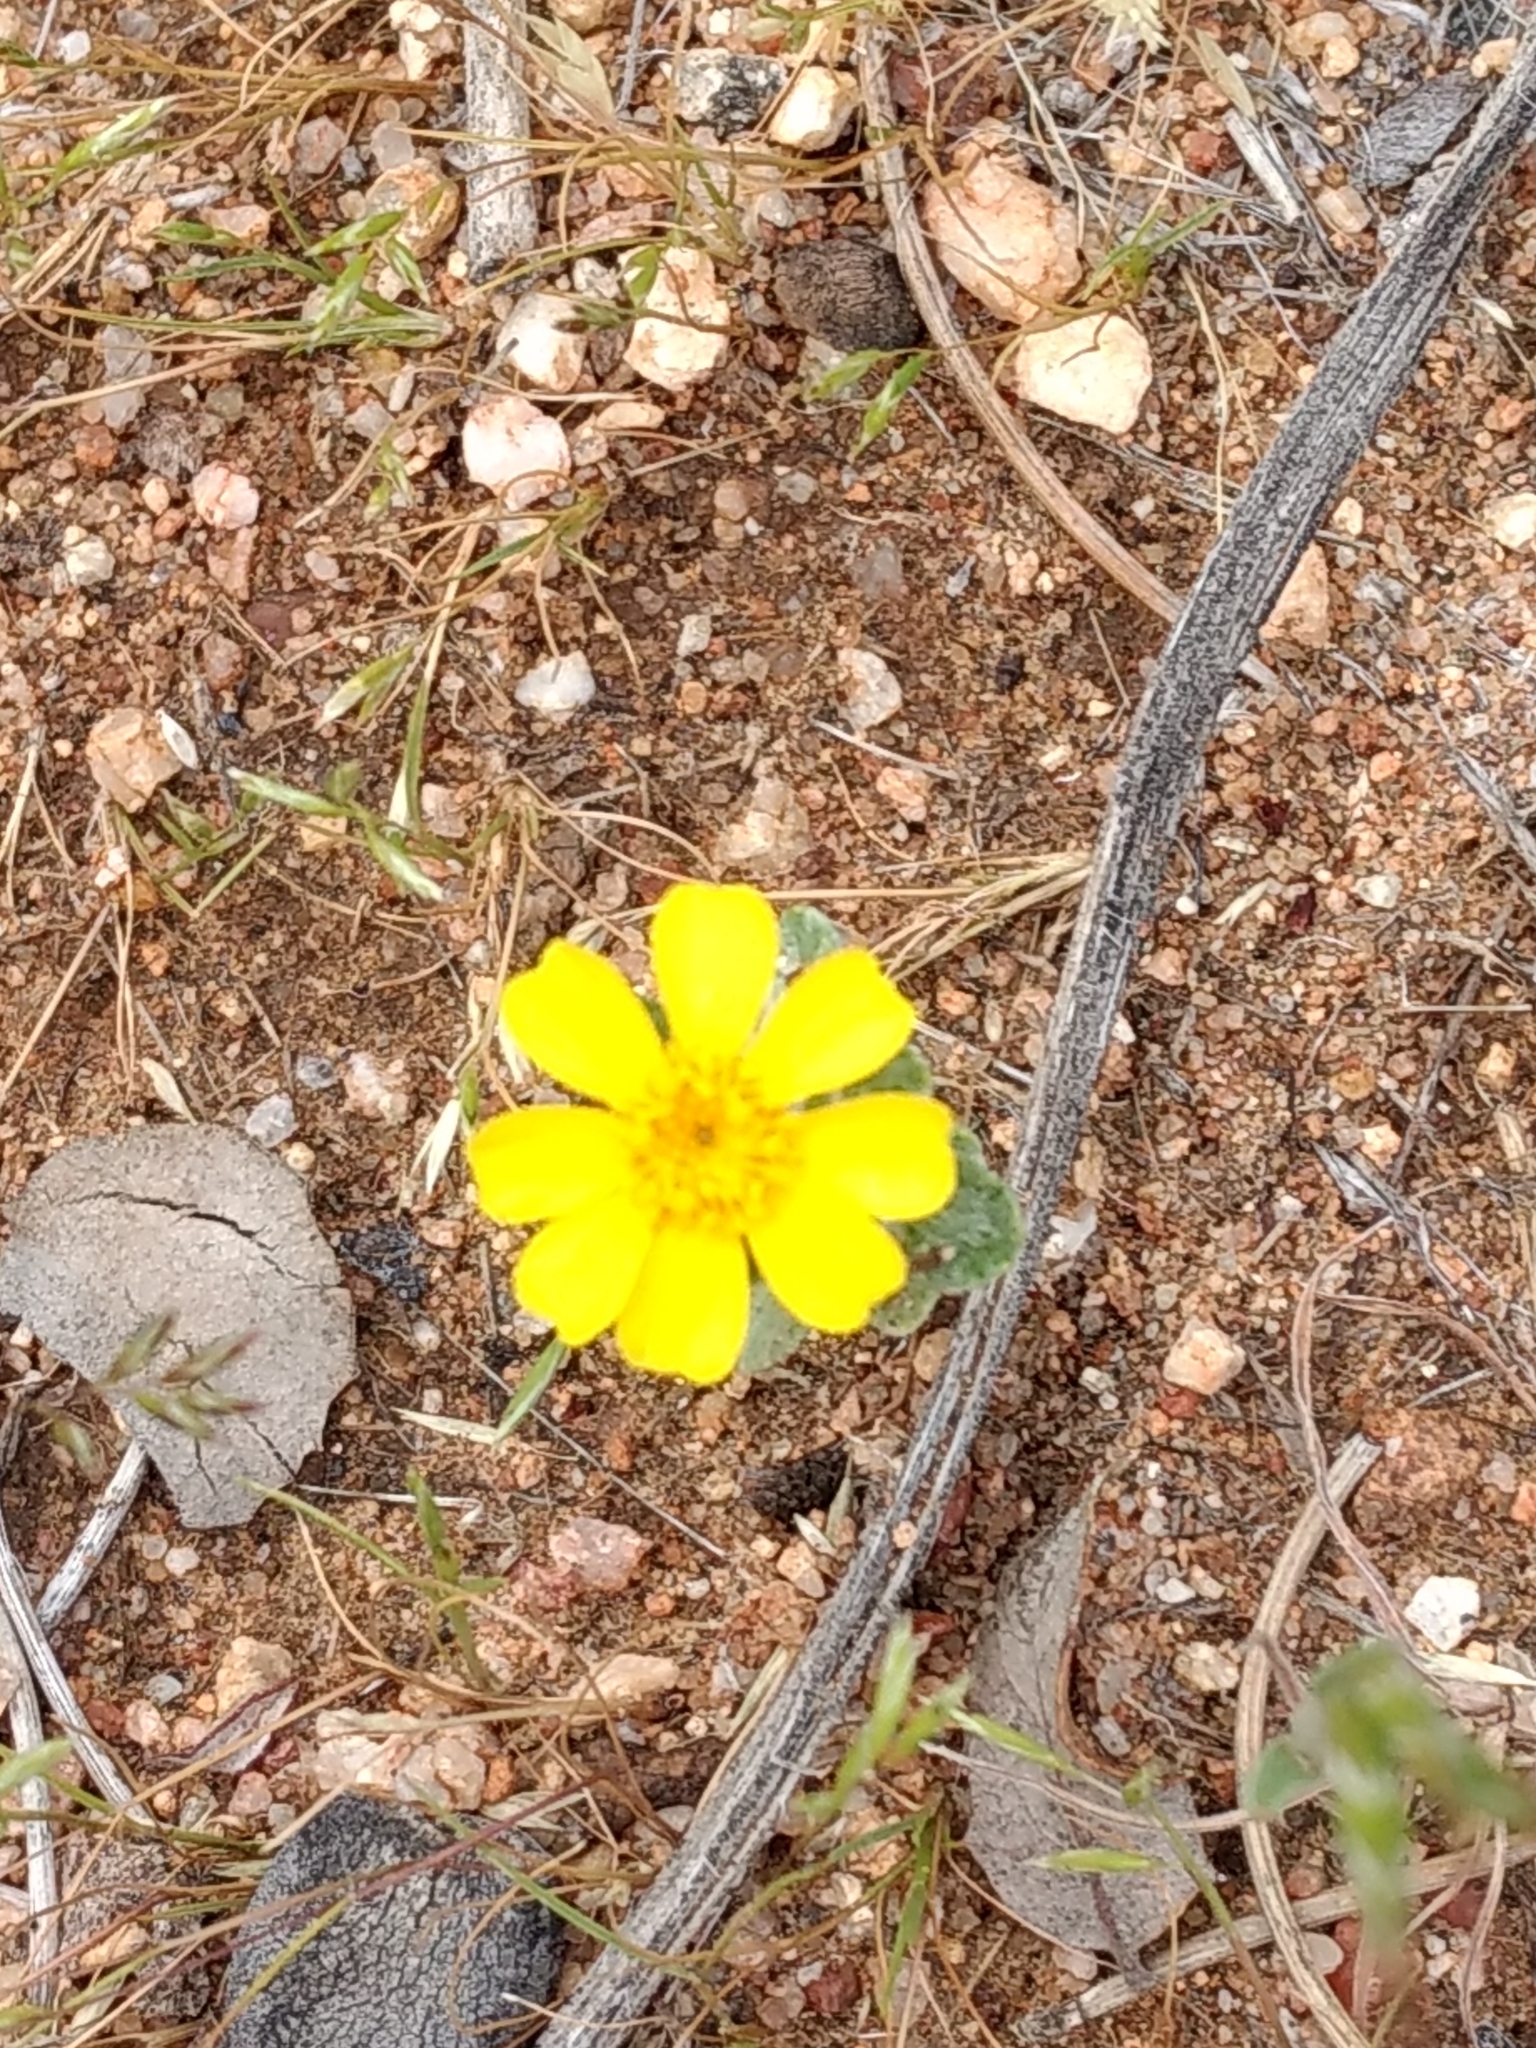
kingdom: Plantae
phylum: Tracheophyta
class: Magnoliopsida
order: Asterales
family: Asteraceae
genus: Eriophyllum
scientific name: Eriophyllum wallacei
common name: Wallace's woolly daisy
